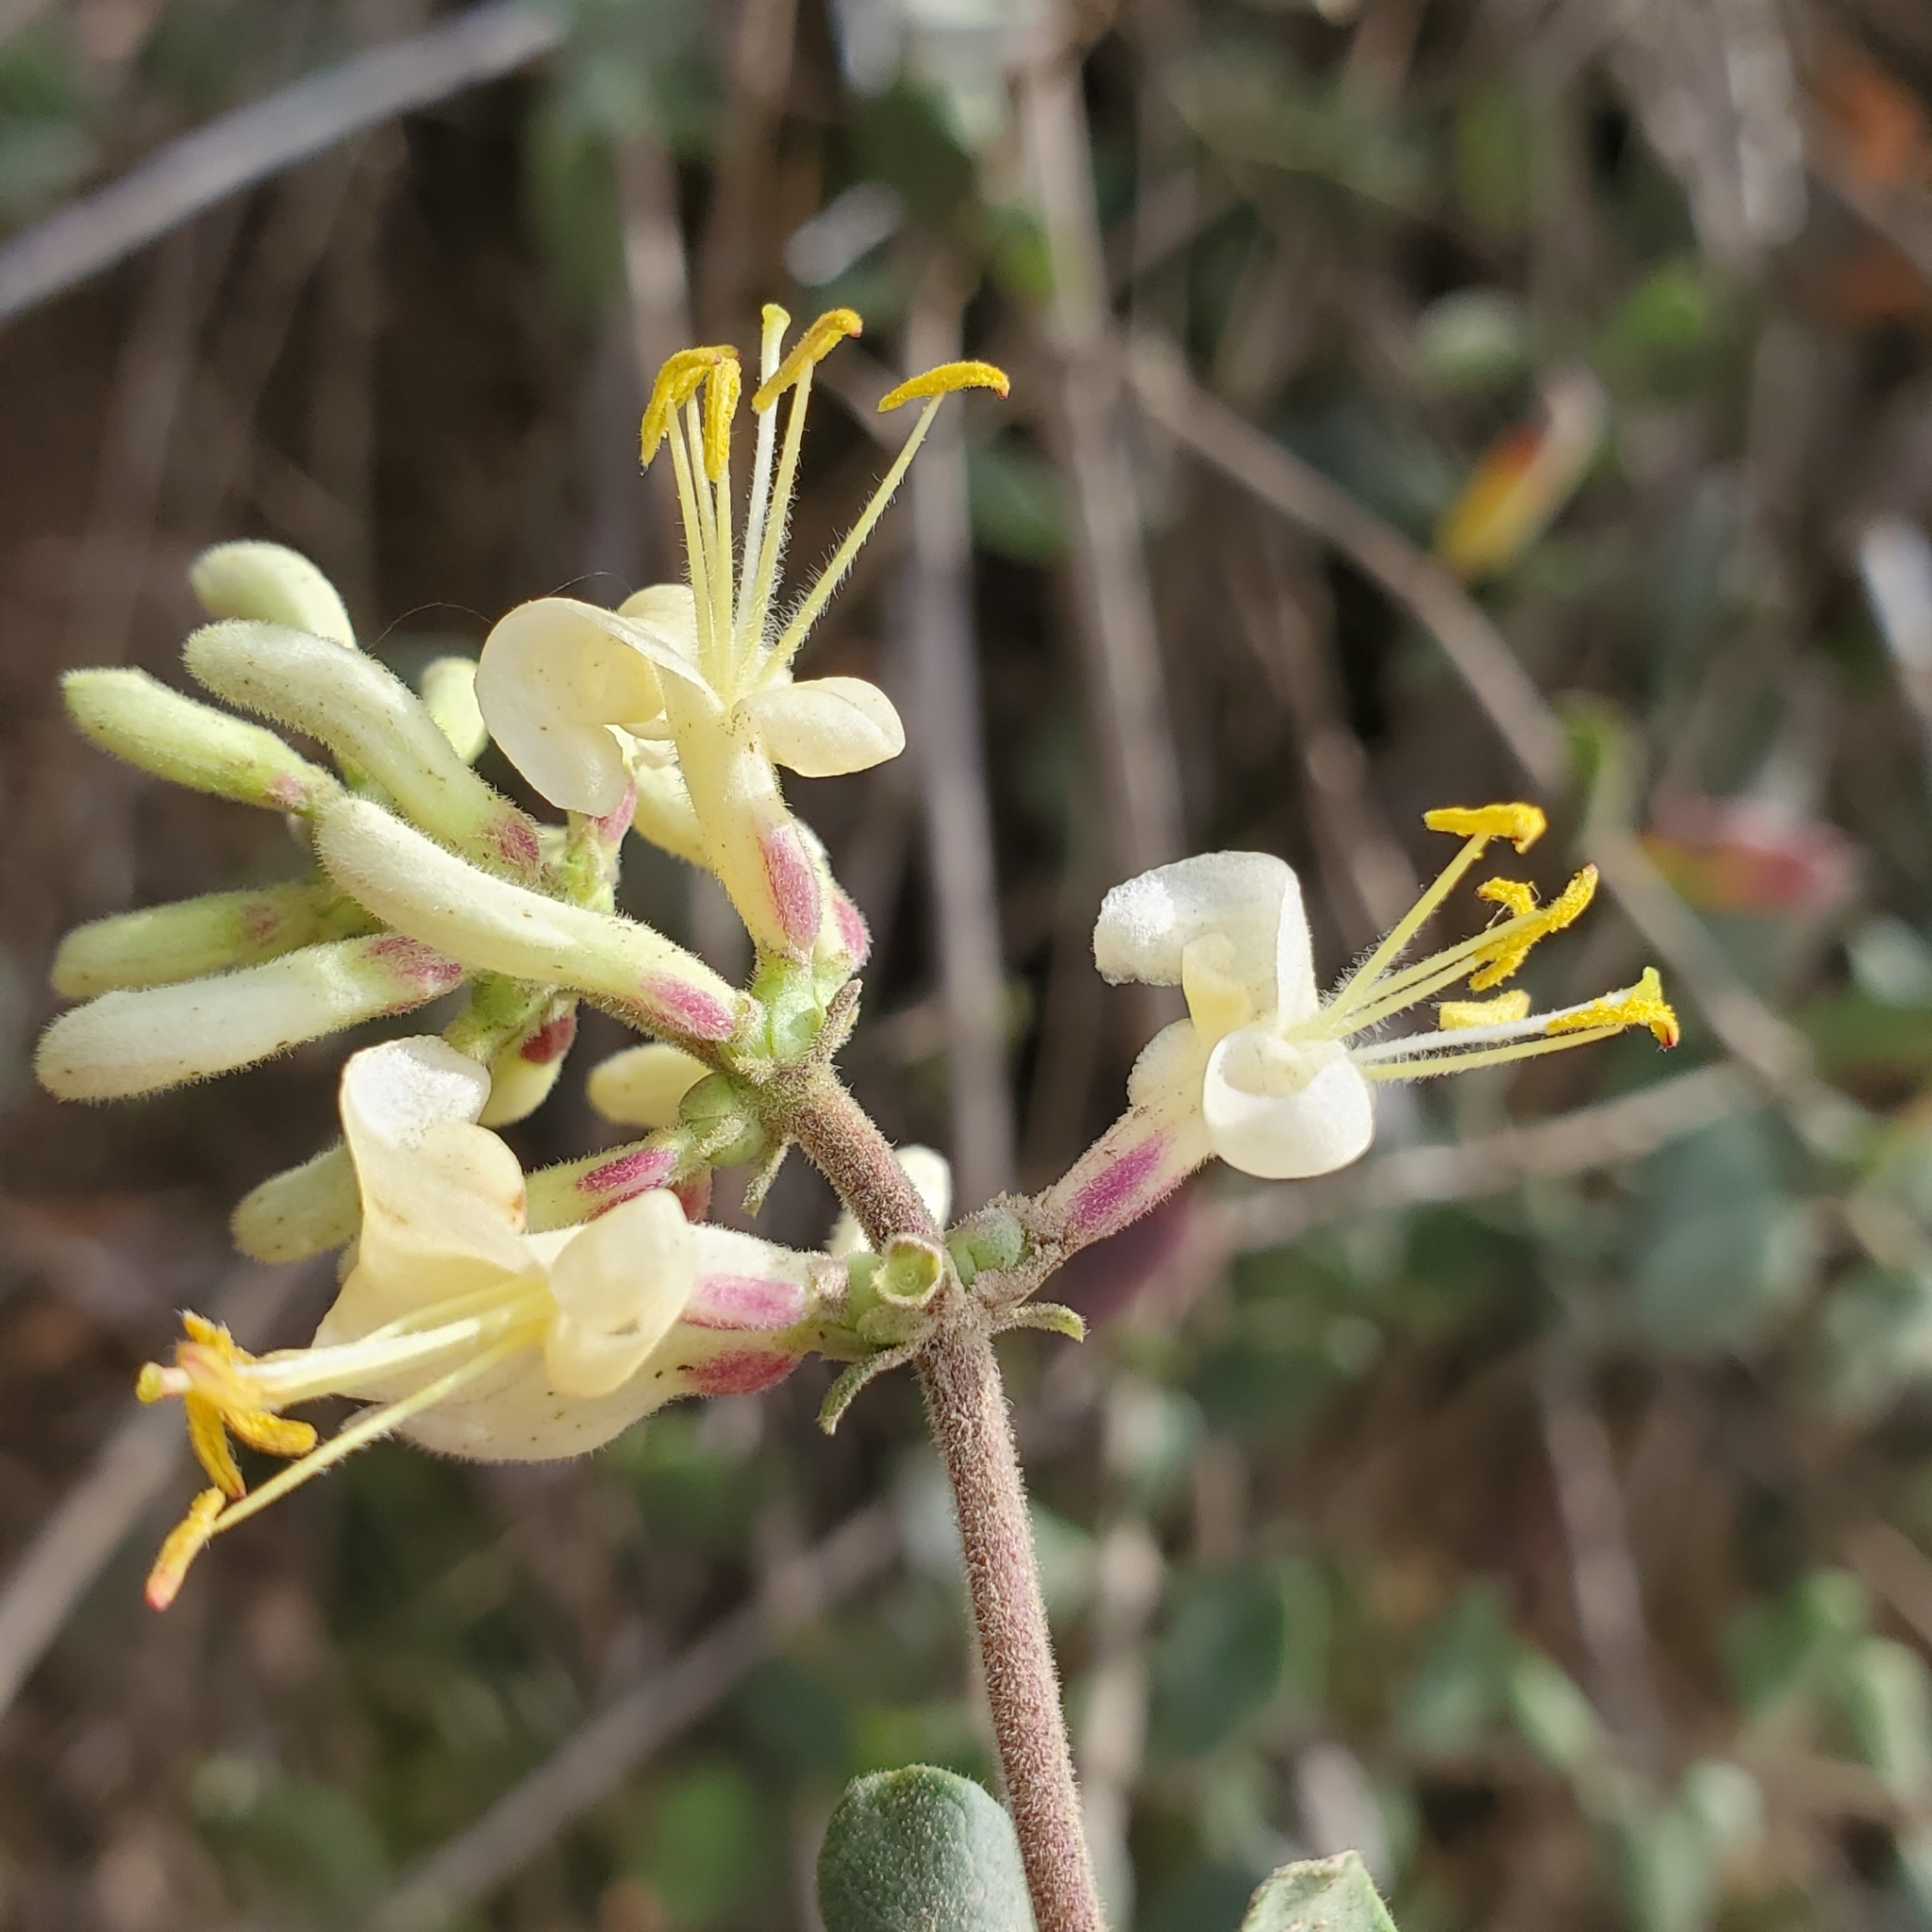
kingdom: Plantae
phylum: Tracheophyta
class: Magnoliopsida
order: Dipsacales
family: Caprifoliaceae
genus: Lonicera
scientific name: Lonicera subspicata
